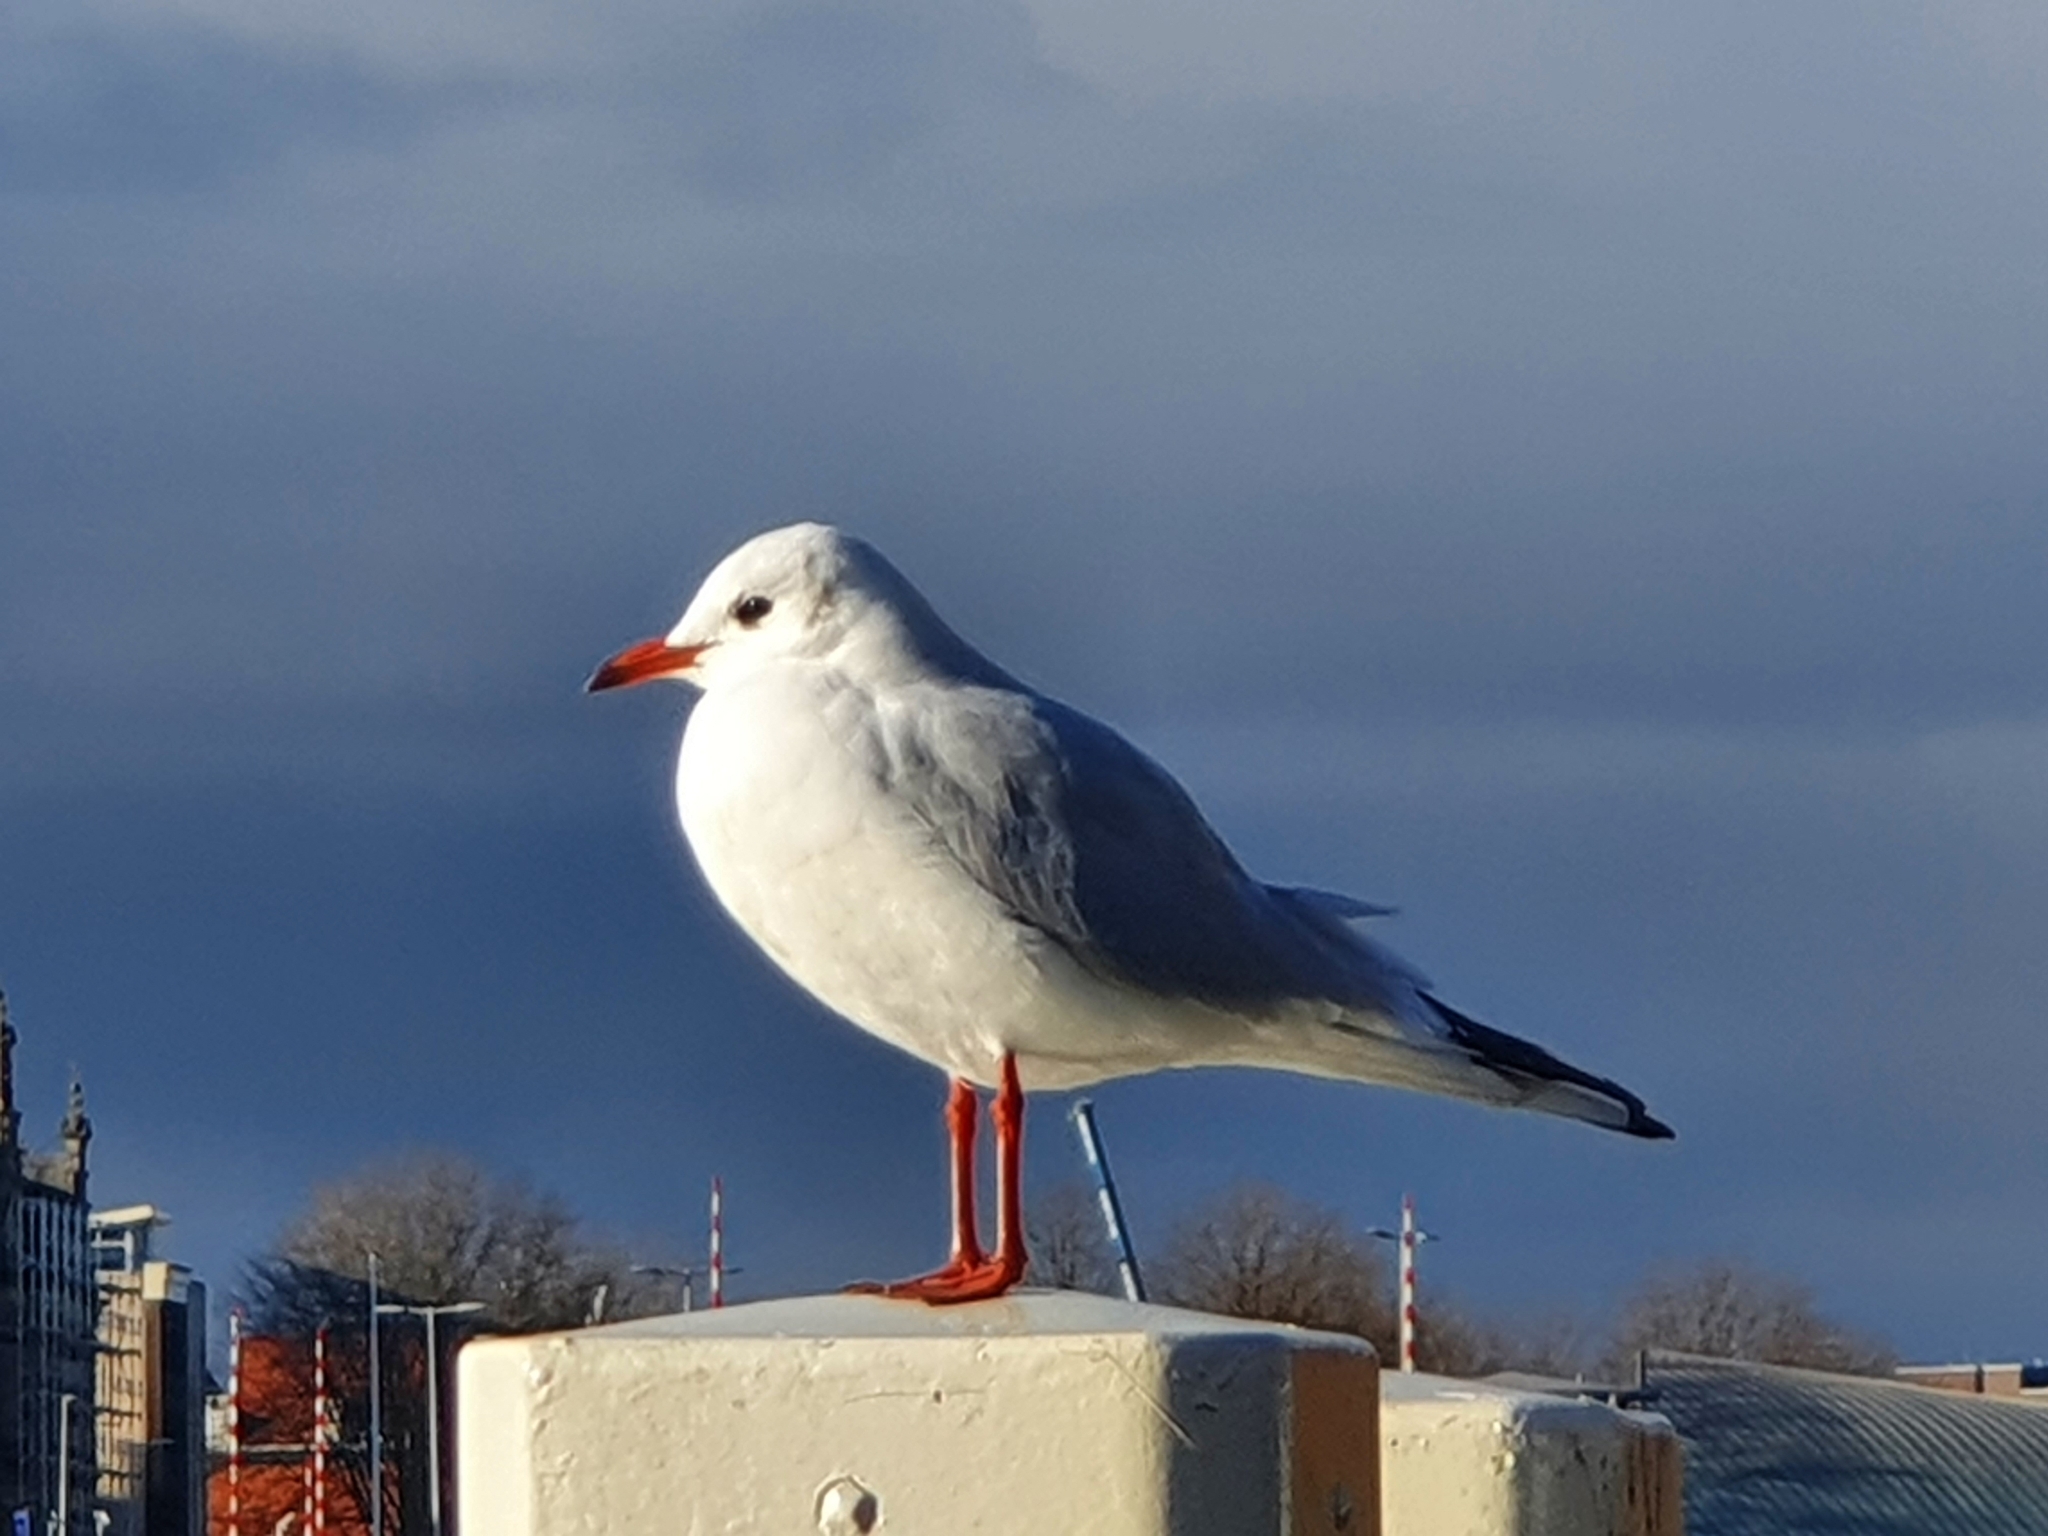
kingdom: Animalia
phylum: Chordata
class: Aves
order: Charadriiformes
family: Laridae
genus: Chroicocephalus
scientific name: Chroicocephalus ridibundus
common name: Black-headed gull
